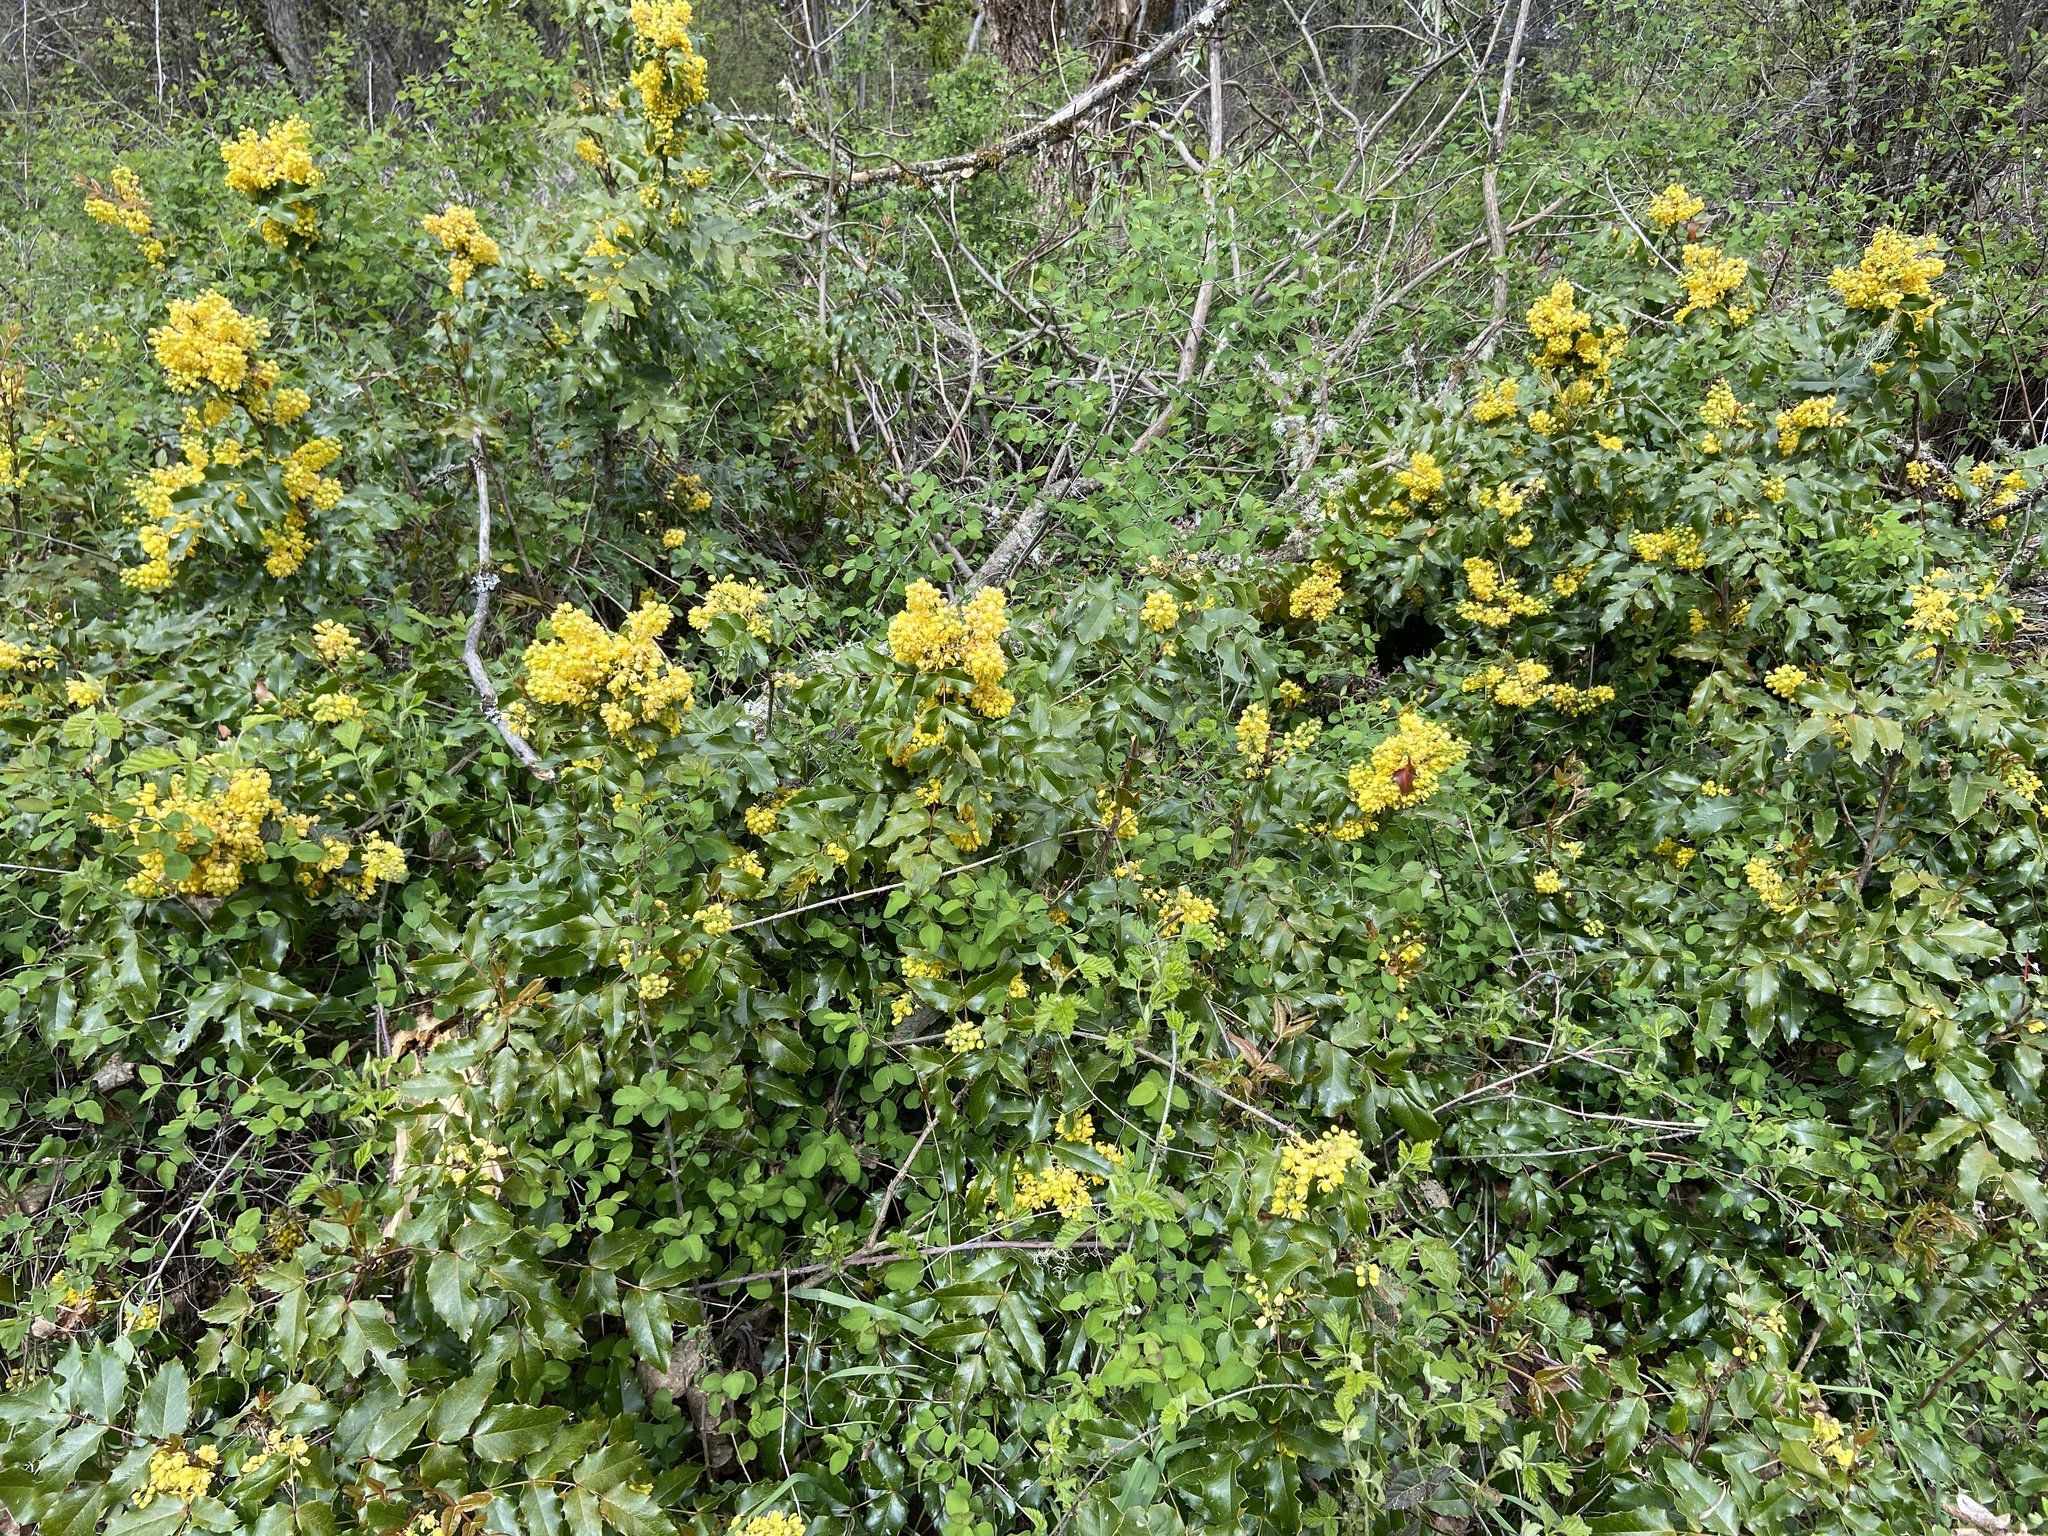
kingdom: Plantae
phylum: Tracheophyta
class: Magnoliopsida
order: Ranunculales
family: Berberidaceae
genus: Mahonia
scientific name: Mahonia aquifolium
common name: Oregon-grape
